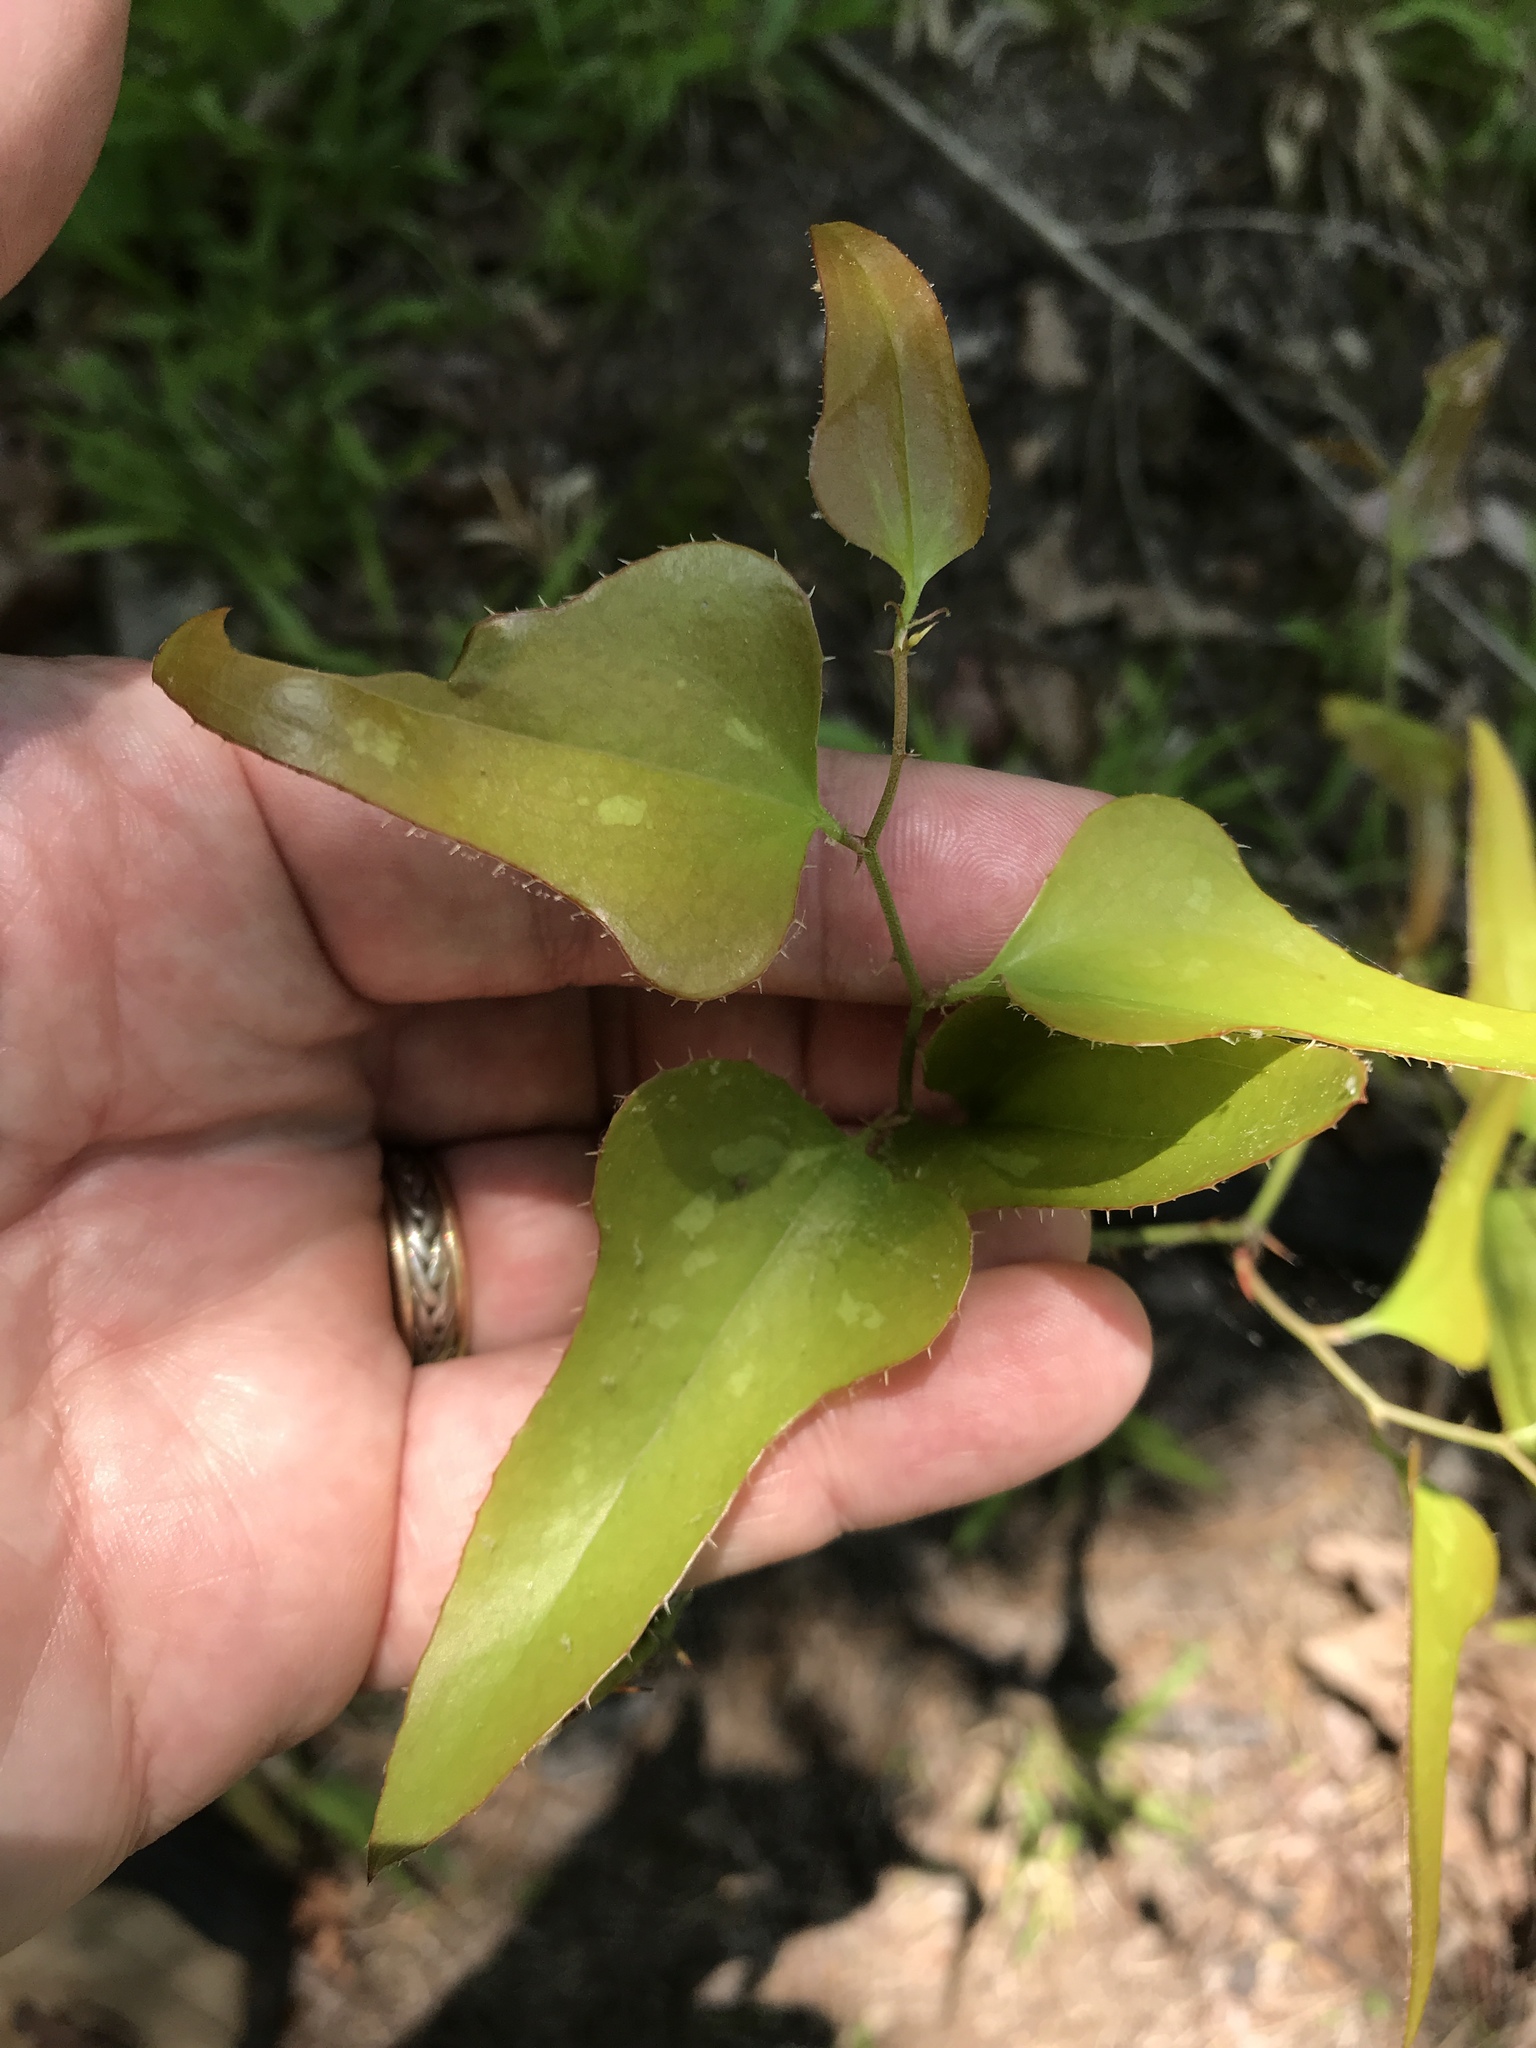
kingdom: Plantae
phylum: Tracheophyta
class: Liliopsida
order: Liliales
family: Smilacaceae
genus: Smilax
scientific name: Smilax bona-nox
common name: Catbrier
